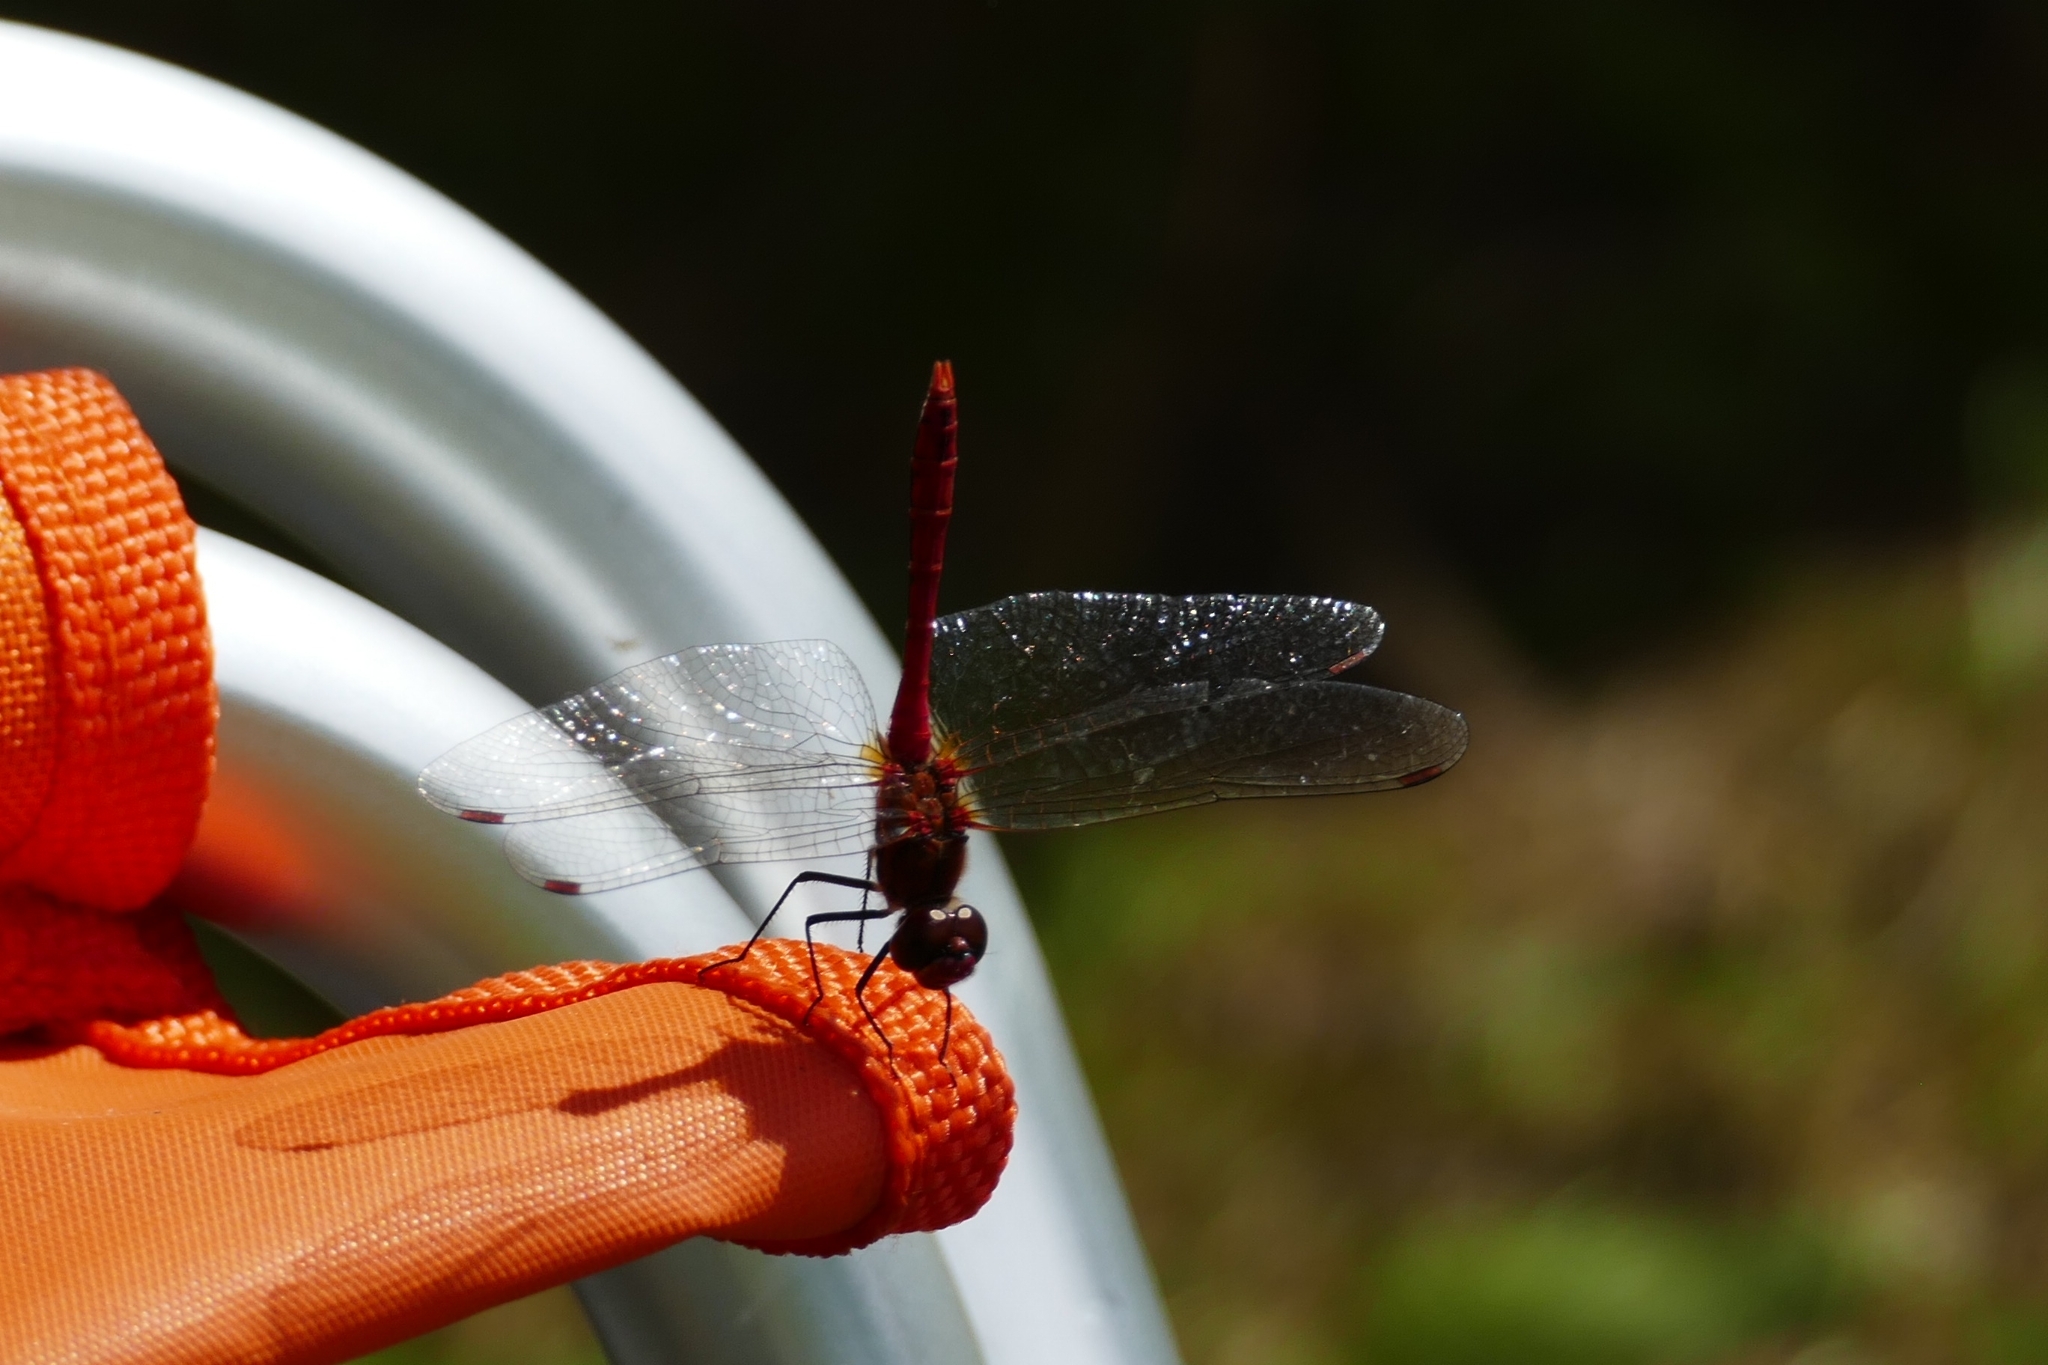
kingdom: Animalia
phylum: Arthropoda
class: Insecta
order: Odonata
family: Libellulidae
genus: Sympetrum
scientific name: Sympetrum sanguineum
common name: Ruddy darter
